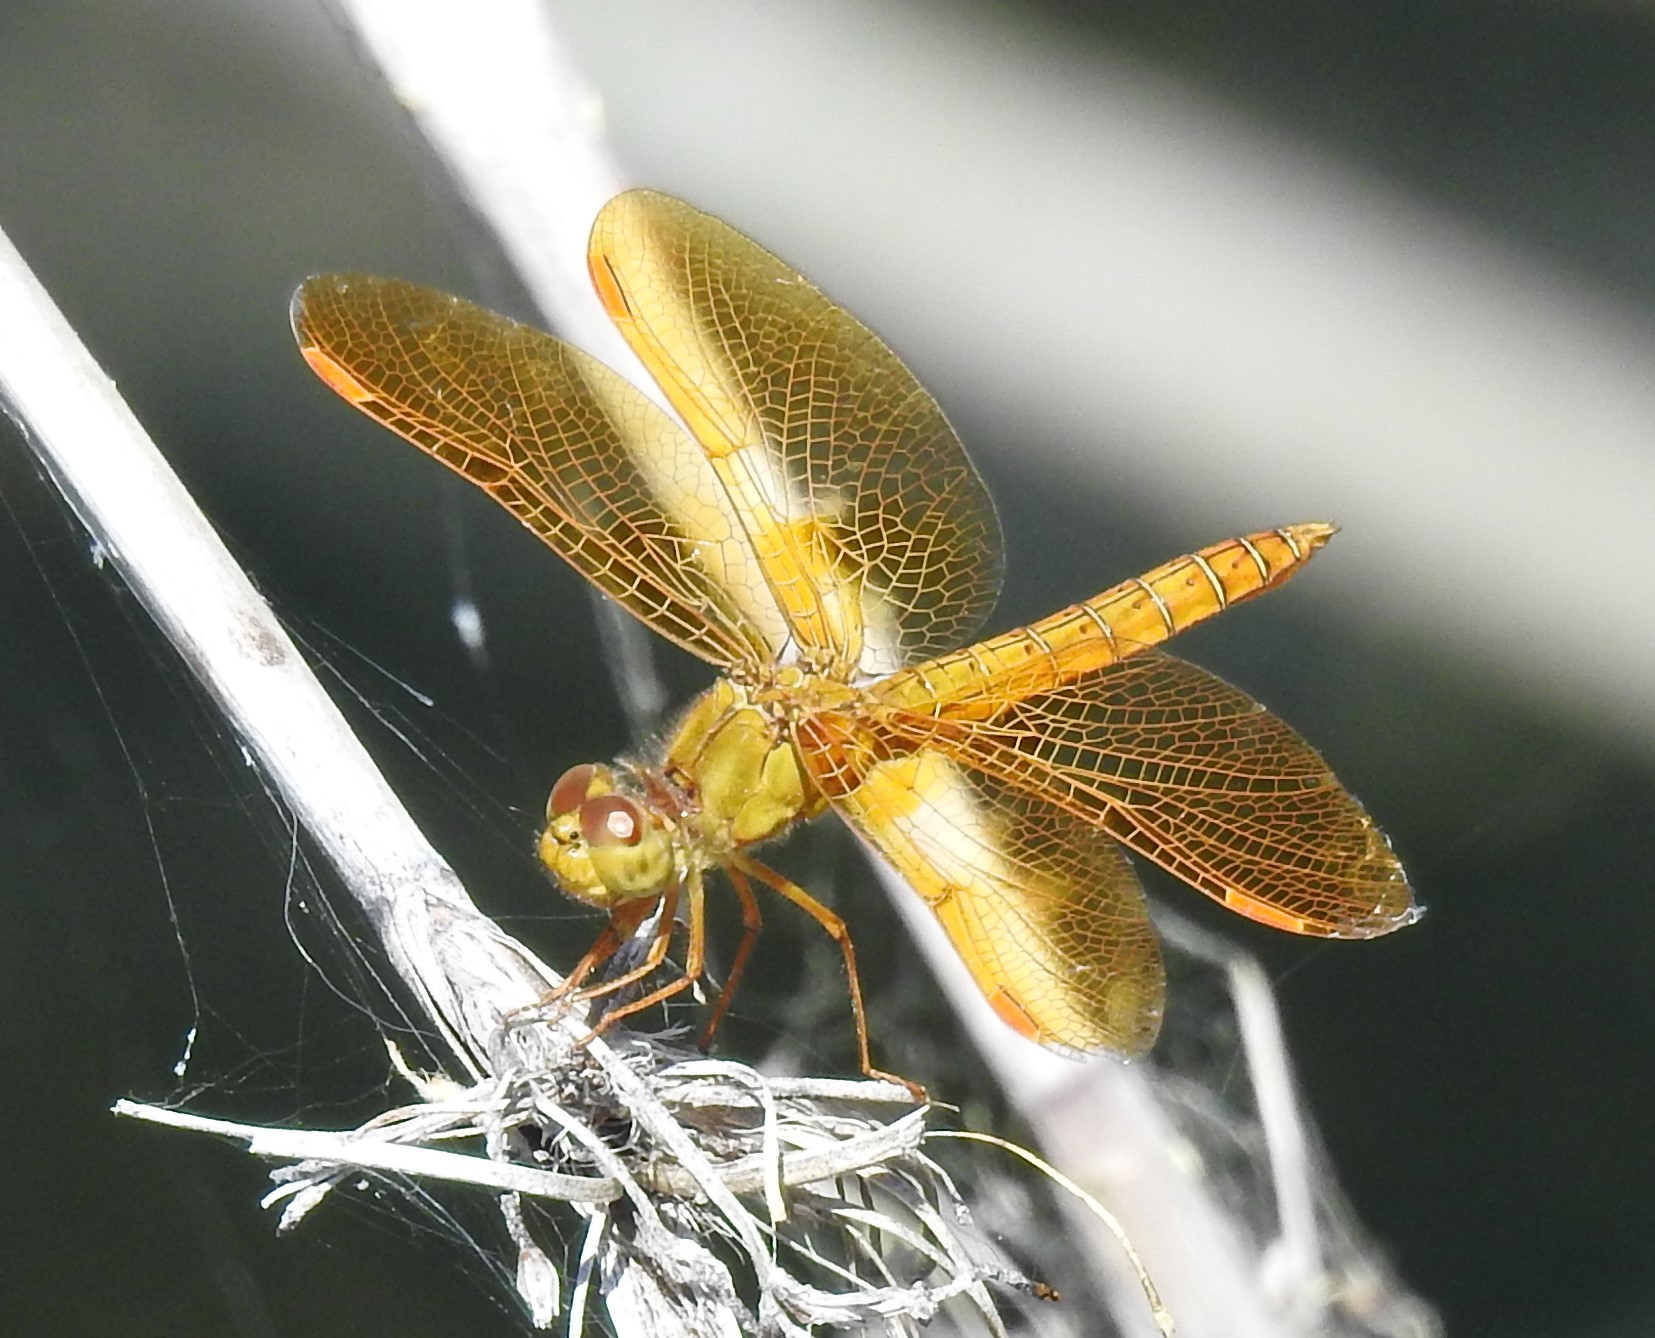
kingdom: Animalia
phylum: Arthropoda
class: Insecta
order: Odonata
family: Libellulidae
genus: Perithemis
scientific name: Perithemis intensa
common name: Mexican amberwing
